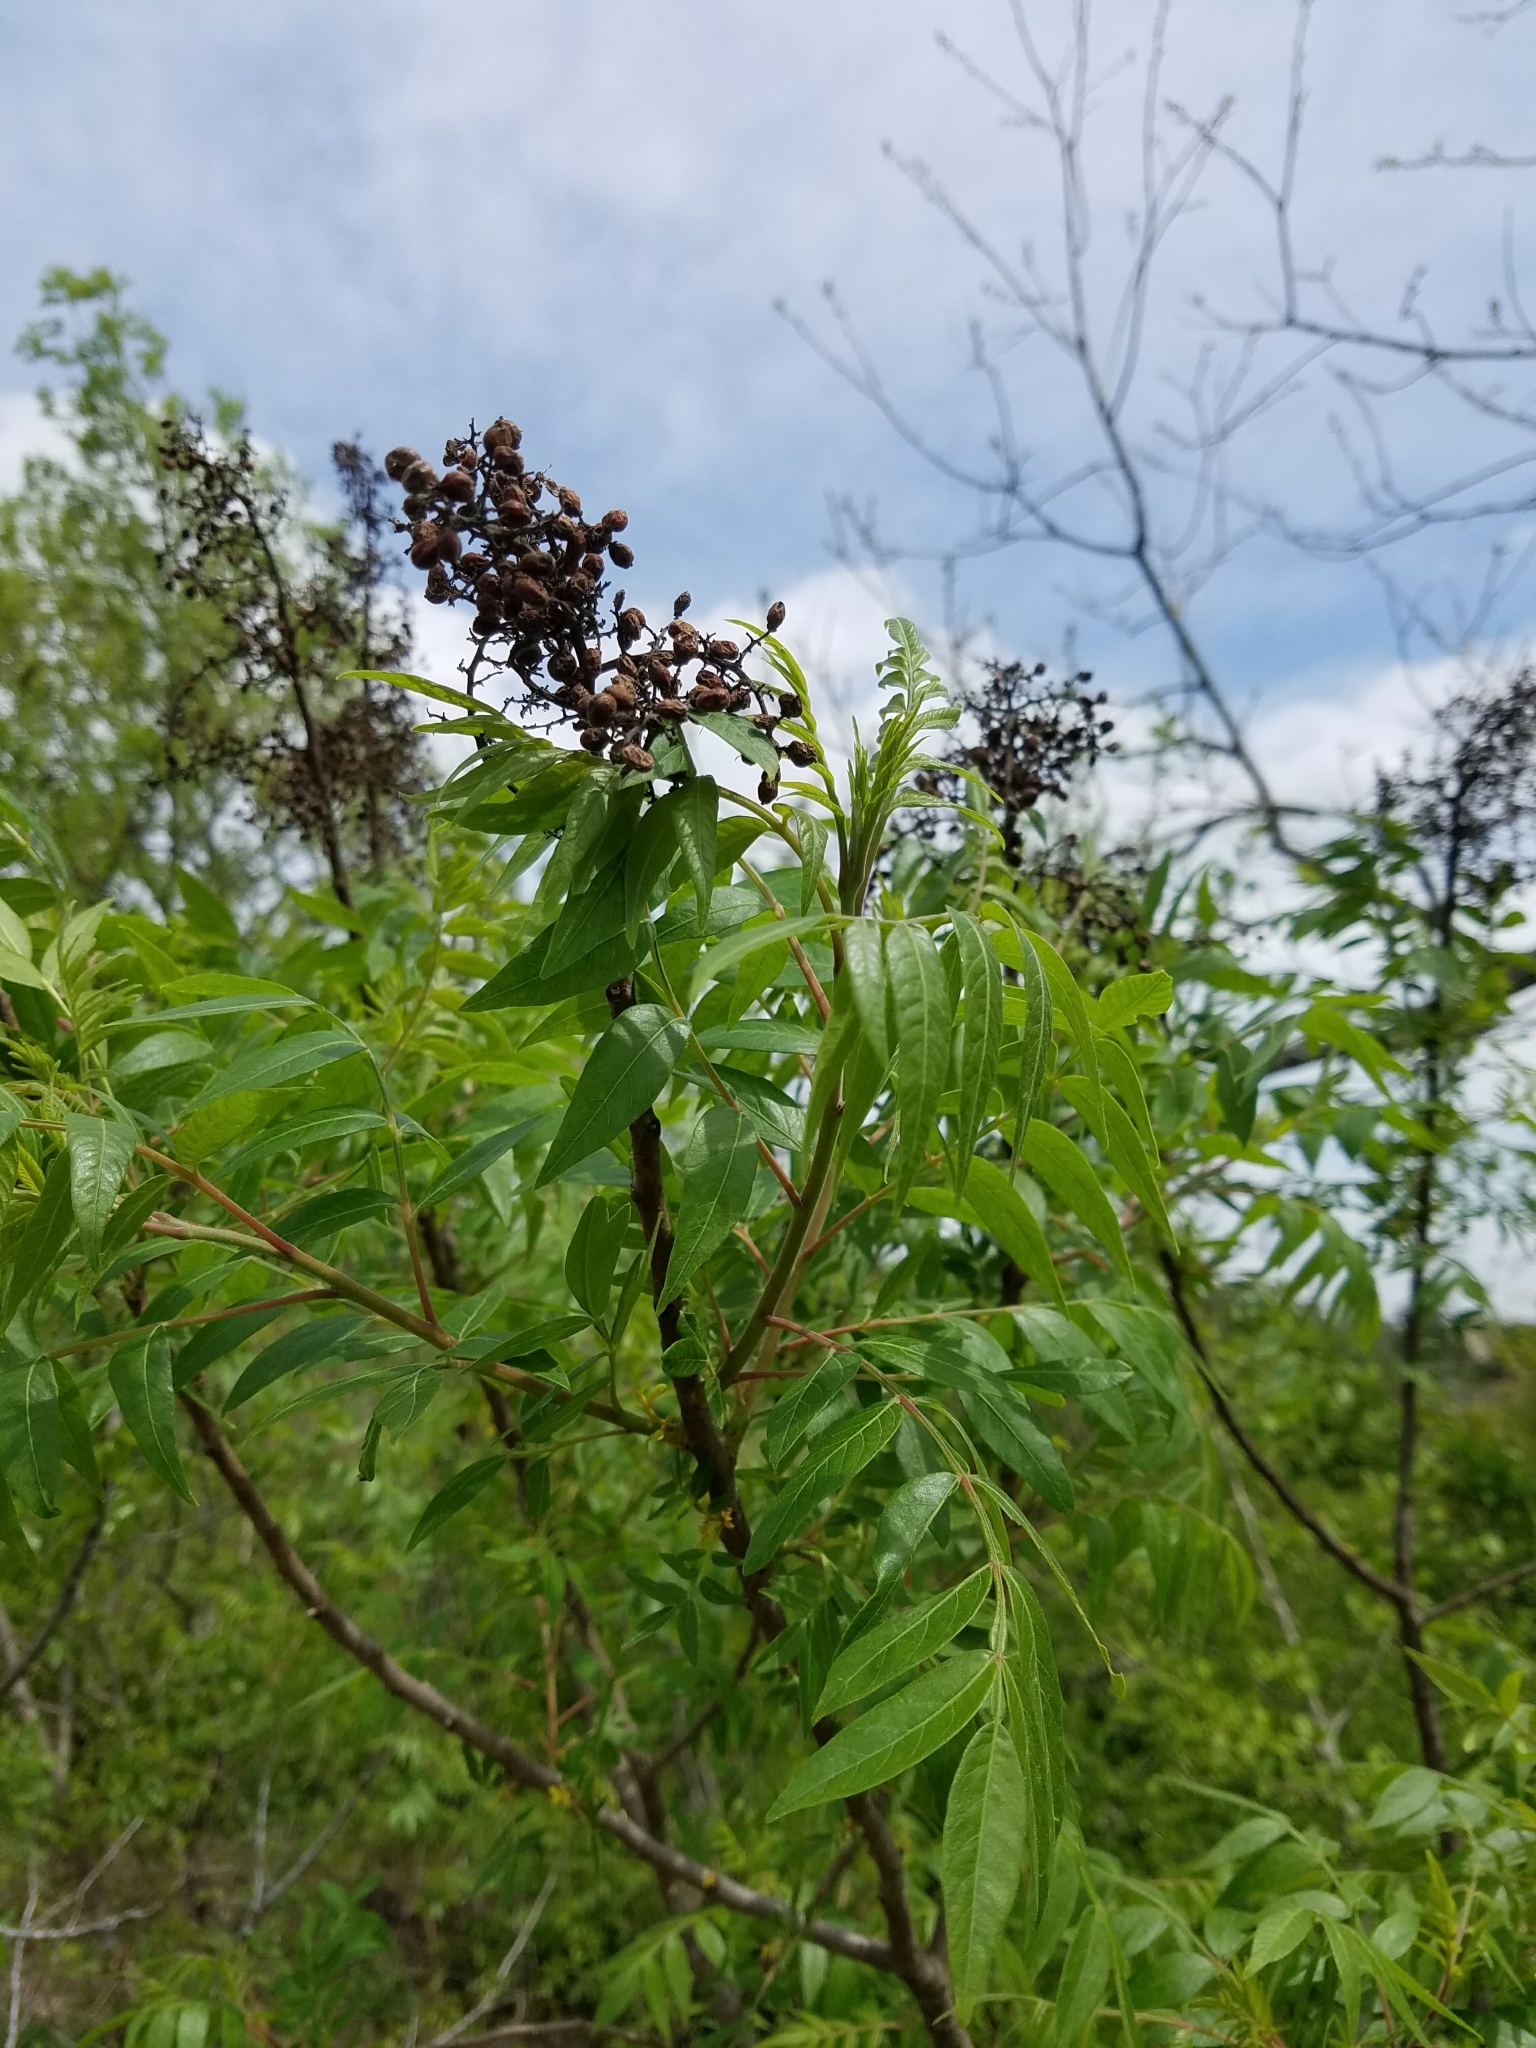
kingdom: Plantae
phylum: Tracheophyta
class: Magnoliopsida
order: Sapindales
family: Anacardiaceae
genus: Rhus
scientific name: Rhus lanceolata
